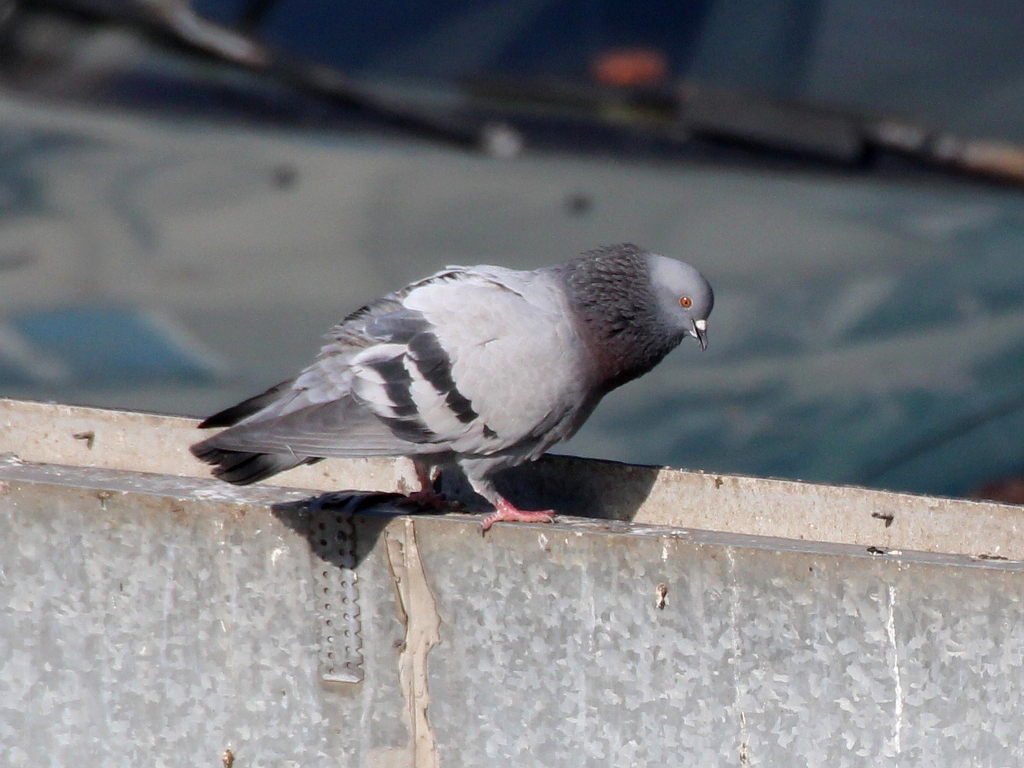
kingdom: Animalia
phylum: Chordata
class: Aves
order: Columbiformes
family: Columbidae
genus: Columba
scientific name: Columba livia
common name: Rock pigeon
